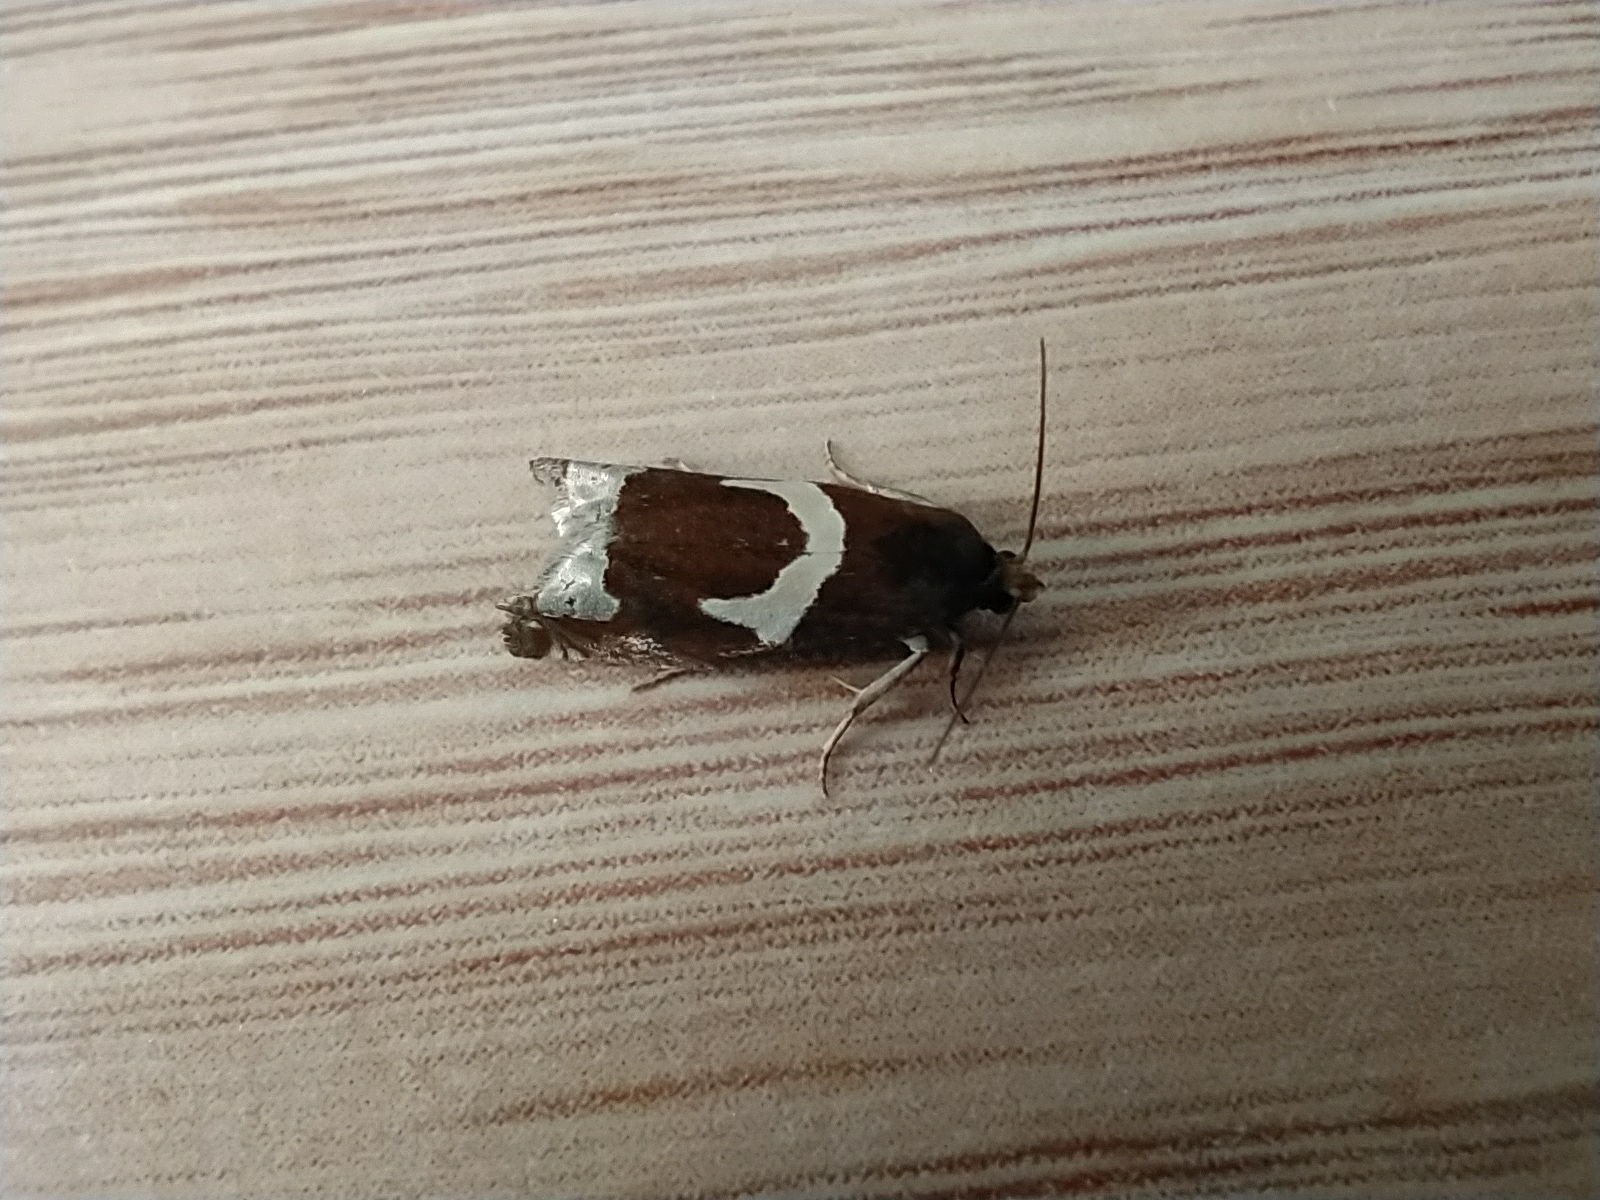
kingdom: Animalia
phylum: Arthropoda
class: Insecta
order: Lepidoptera
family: Tortricidae
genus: Epiblema
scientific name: Epiblema foenella
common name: White-foot bell
